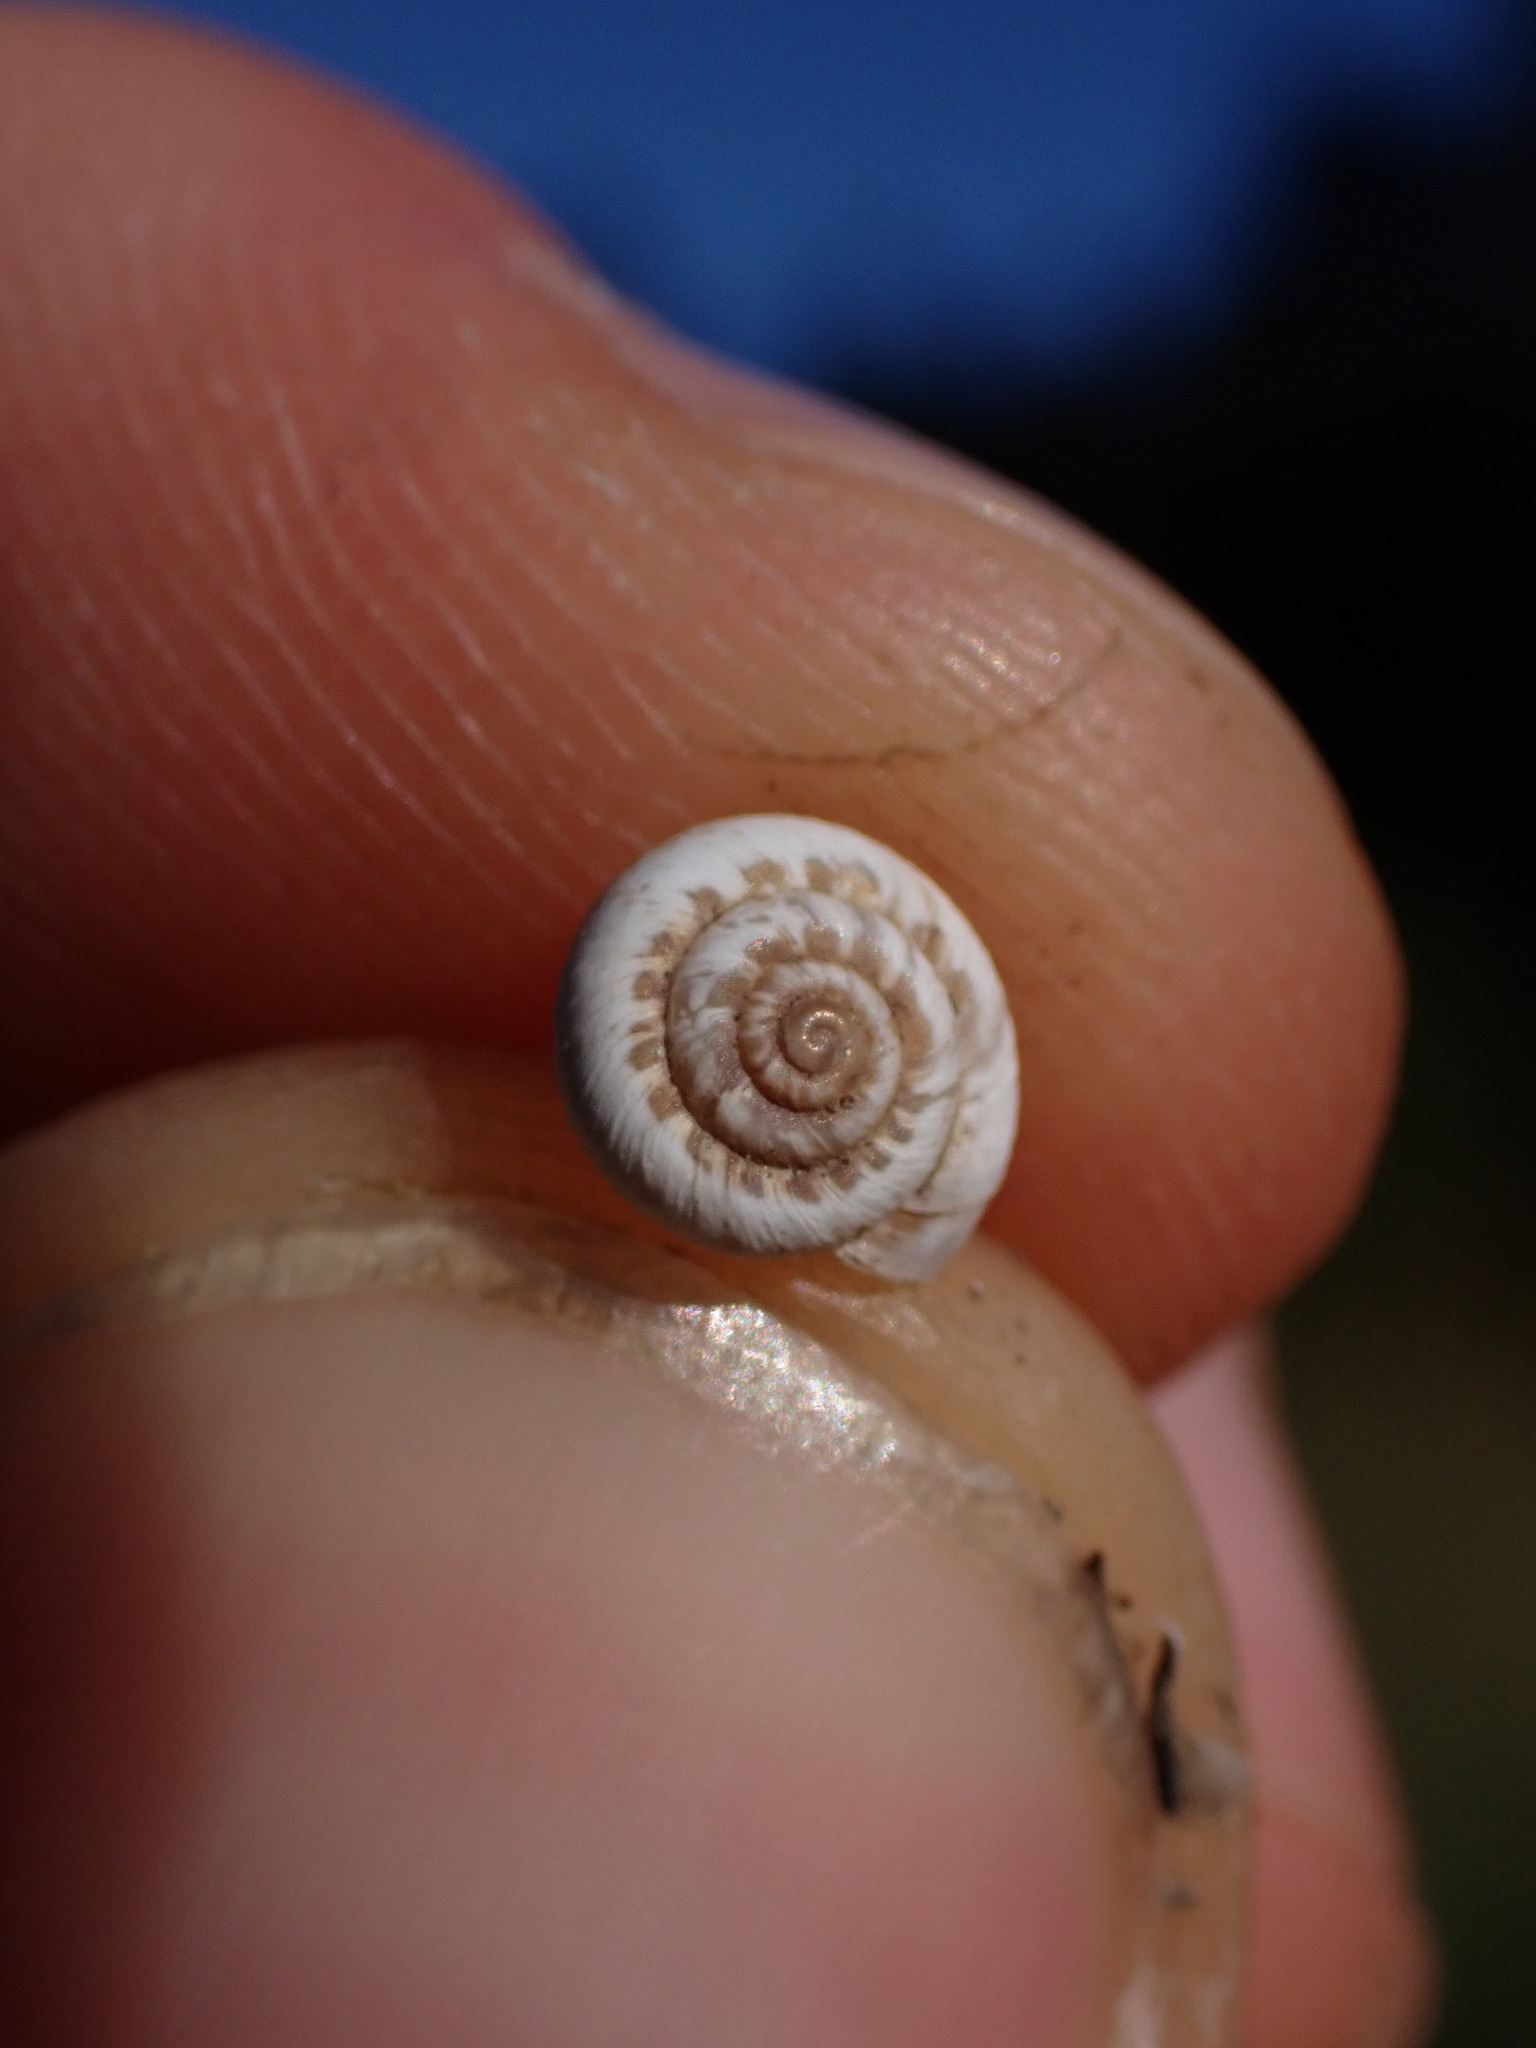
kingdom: Animalia
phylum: Mollusca
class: Gastropoda
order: Stylommatophora
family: Geomitridae
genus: Xerotricha
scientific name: Xerotricha apicina
